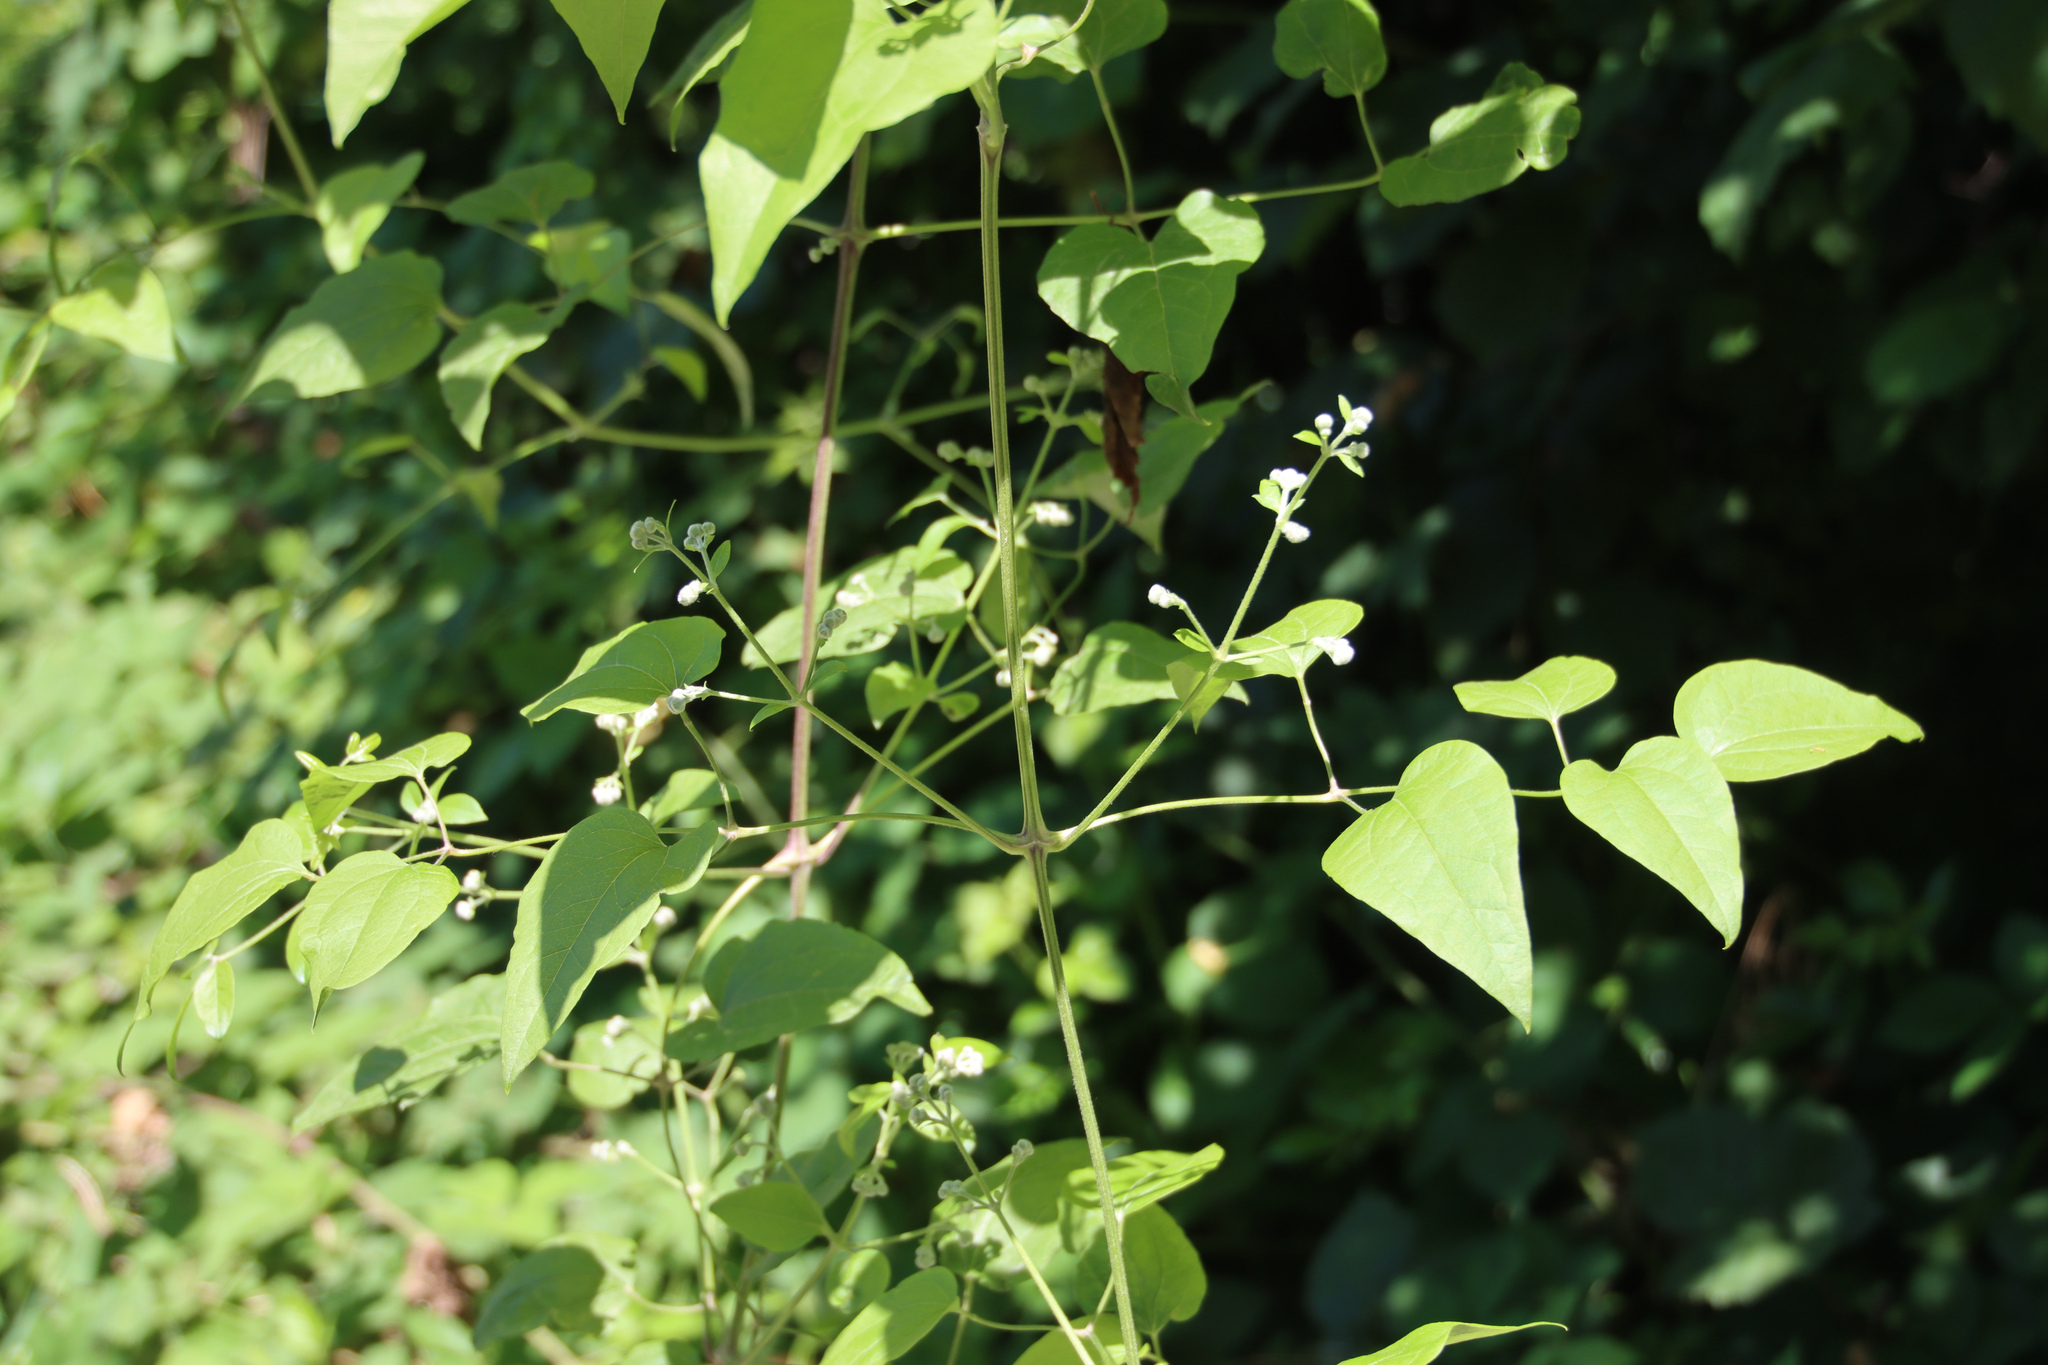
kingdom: Plantae
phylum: Tracheophyta
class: Magnoliopsida
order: Ranunculales
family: Ranunculaceae
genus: Clematis
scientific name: Clematis vitalba
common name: Evergreen clematis
